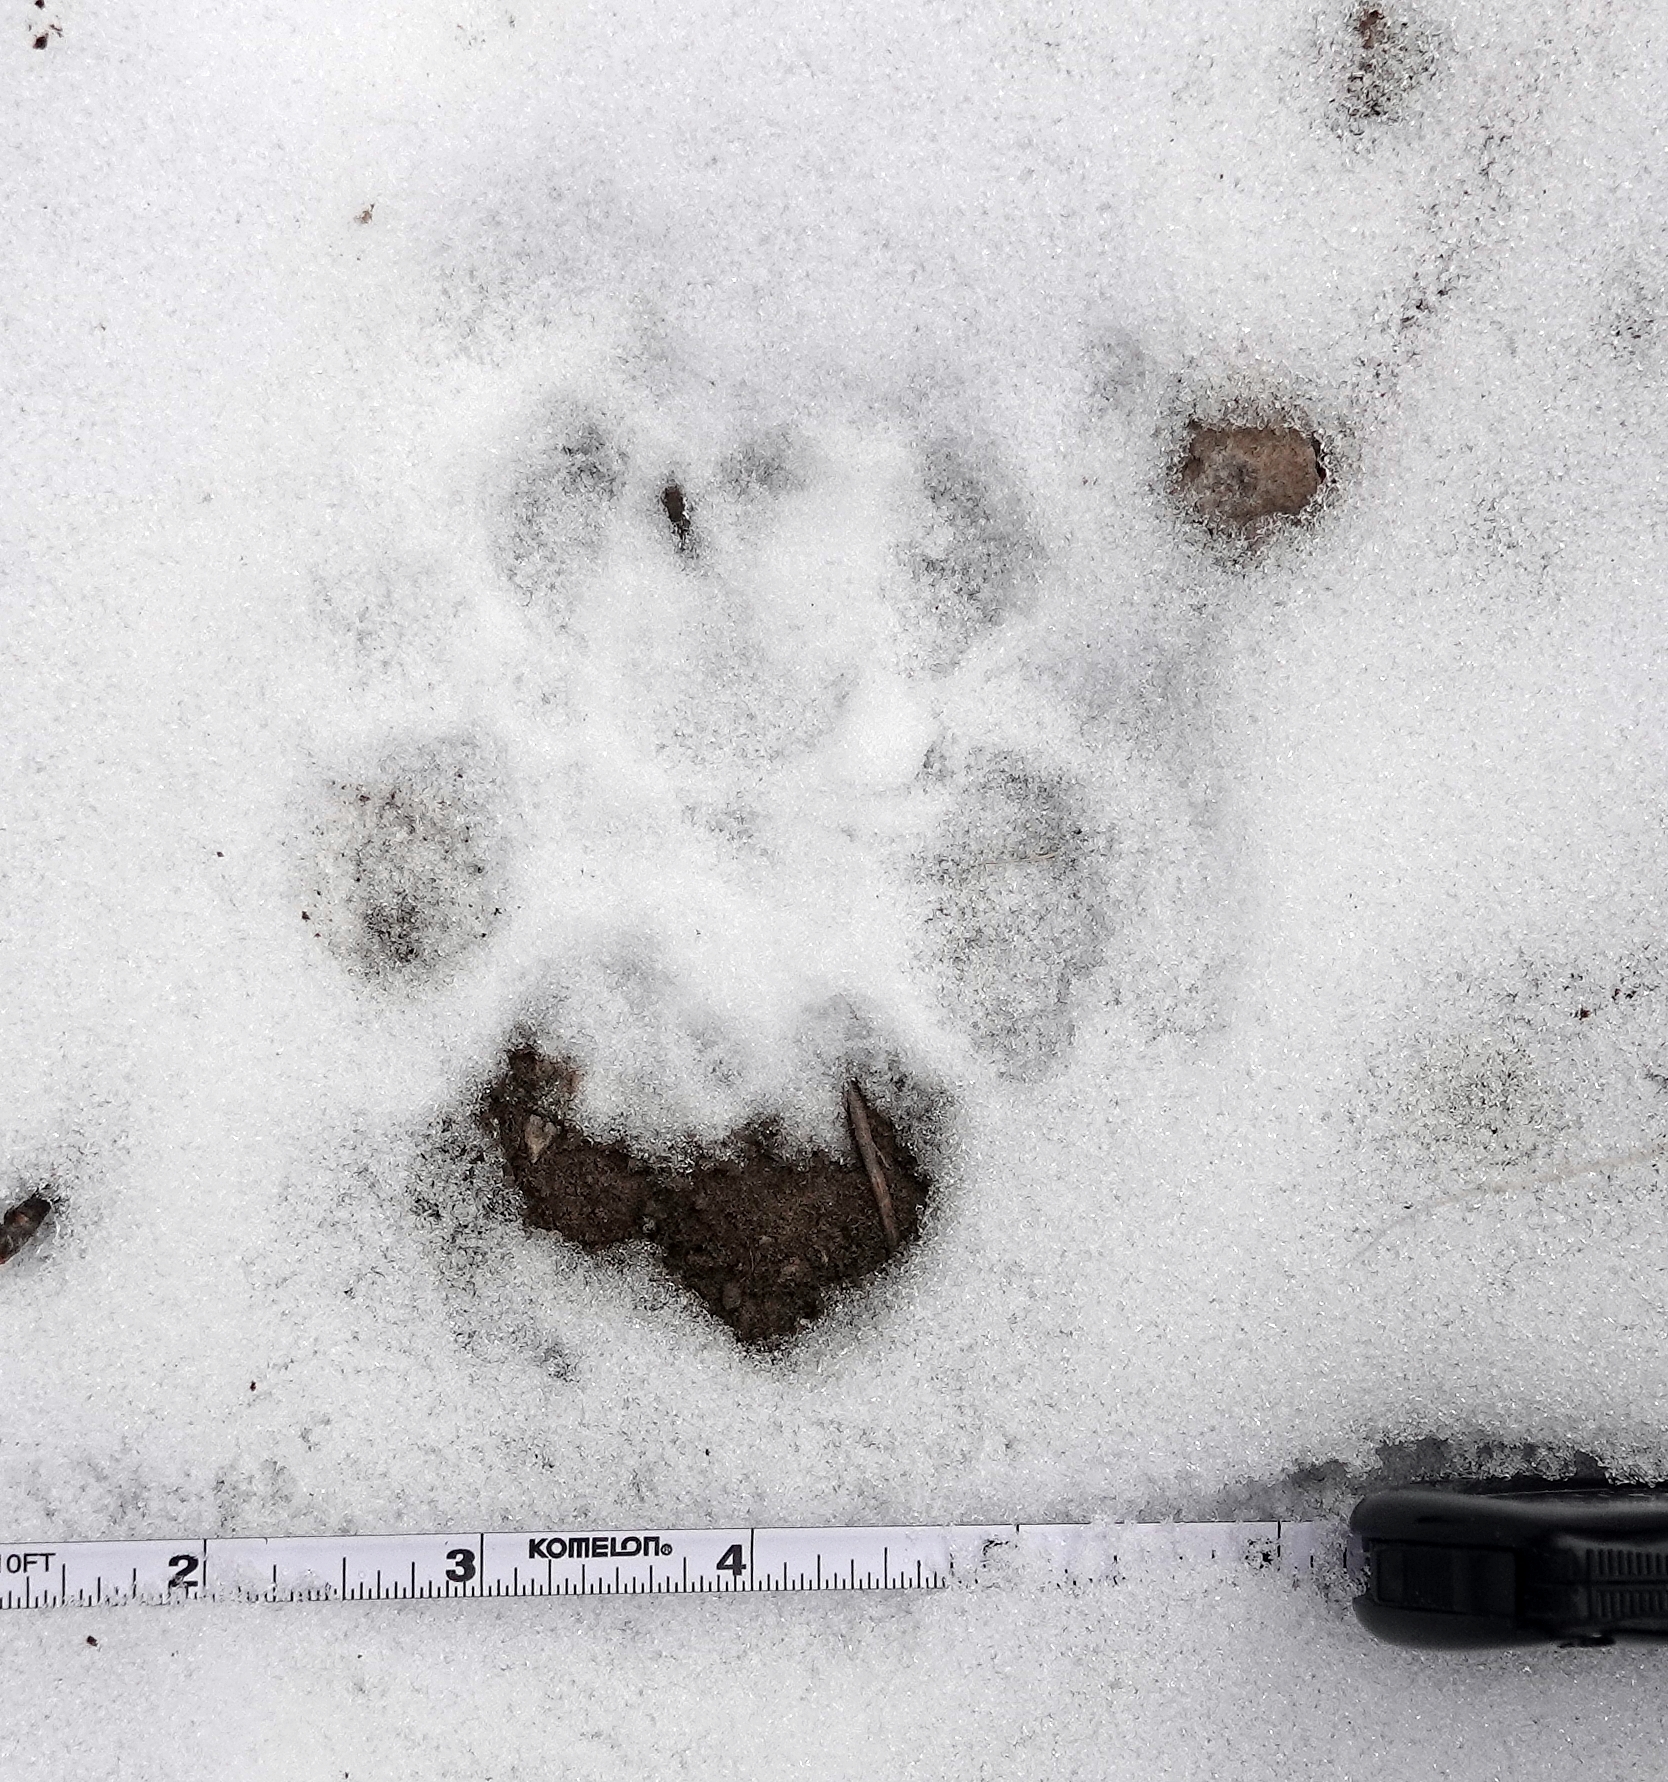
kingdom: Animalia
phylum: Chordata
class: Mammalia
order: Carnivora
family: Felidae
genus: Puma
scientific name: Puma concolor
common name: Puma
